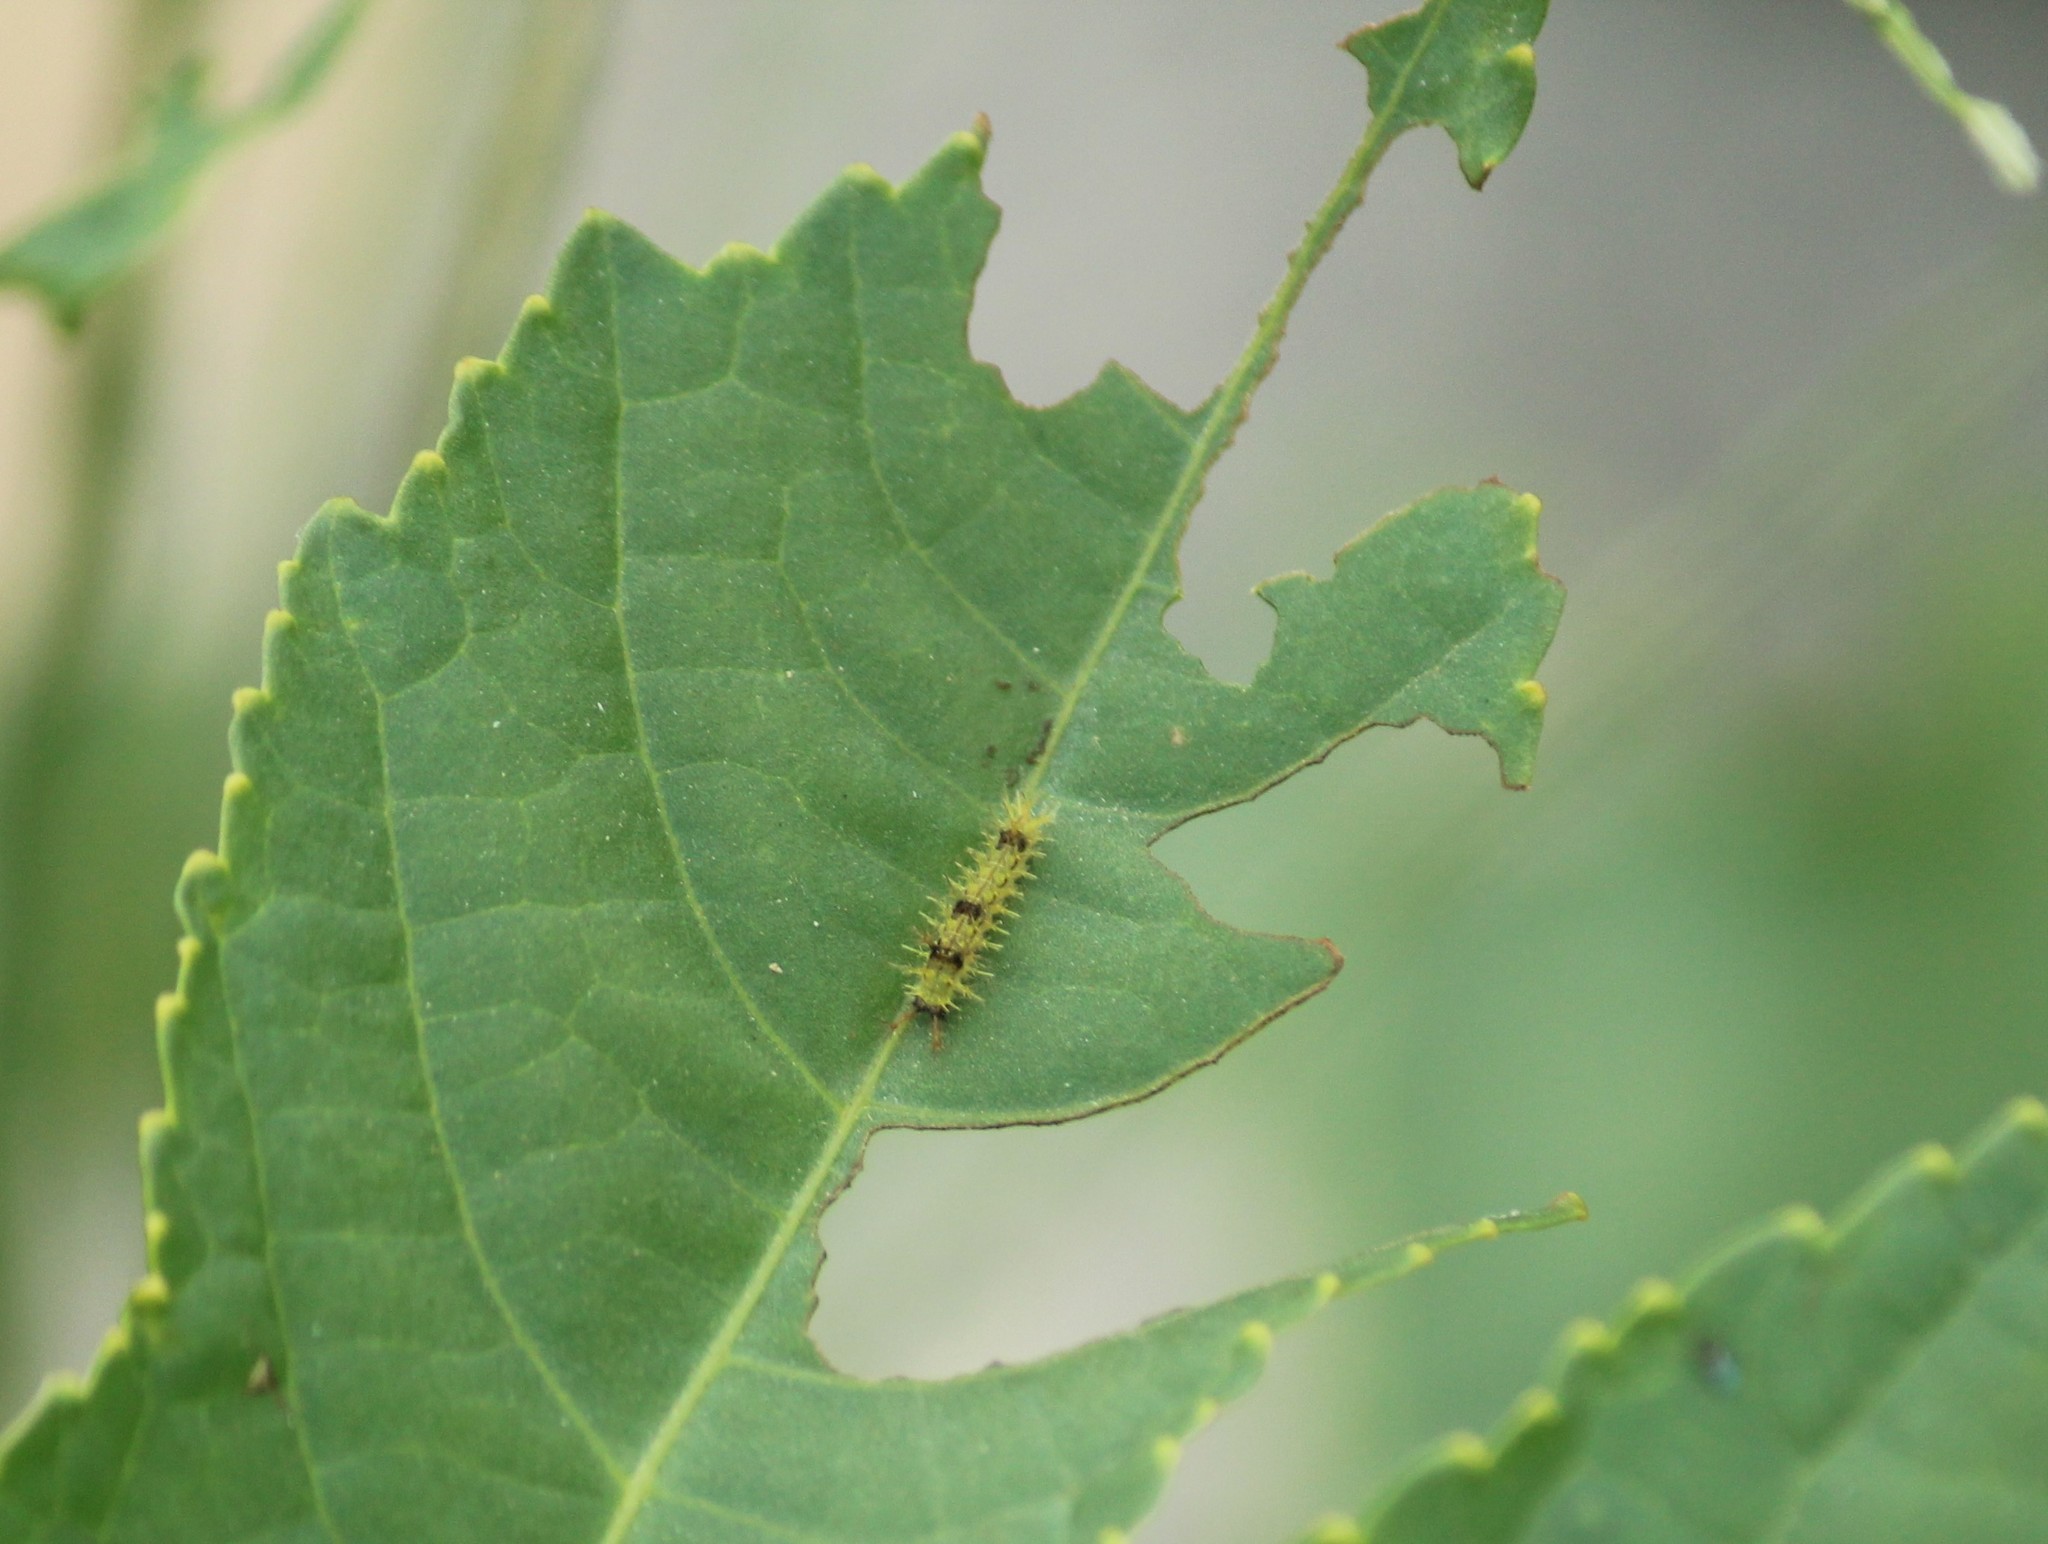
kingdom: Animalia
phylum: Arthropoda
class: Insecta
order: Lepidoptera
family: Nymphalidae
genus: Ariadne
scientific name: Ariadne merione
